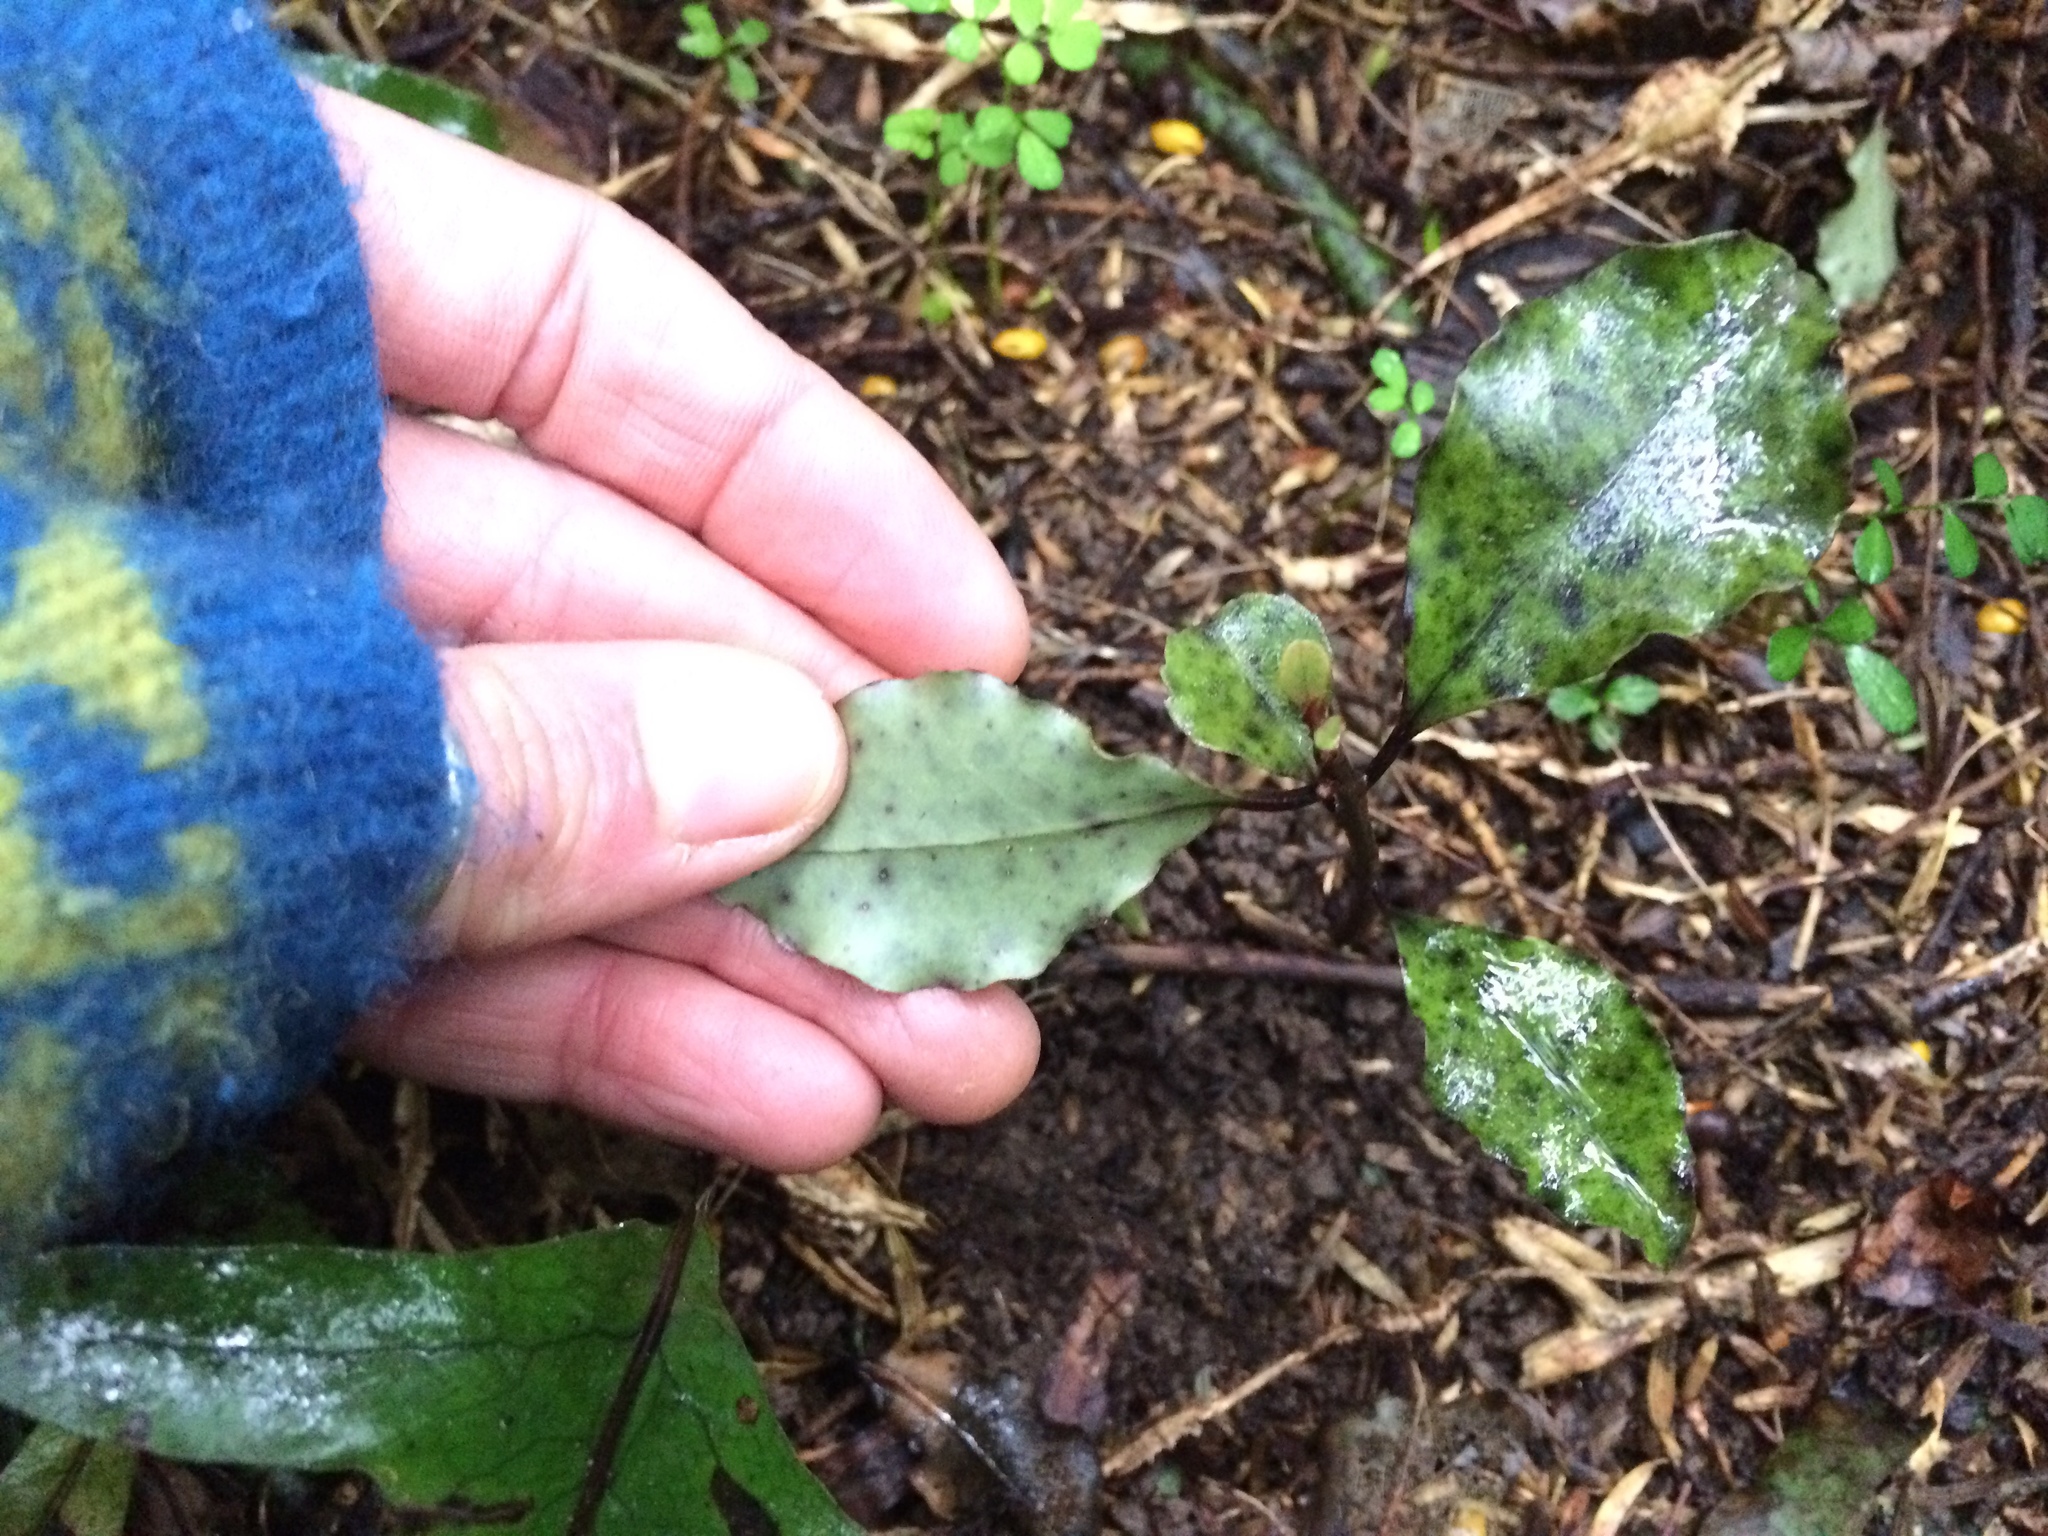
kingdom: Plantae
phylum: Tracheophyta
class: Magnoliopsida
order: Ericales
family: Primulaceae
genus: Myrsine
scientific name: Myrsine australis
